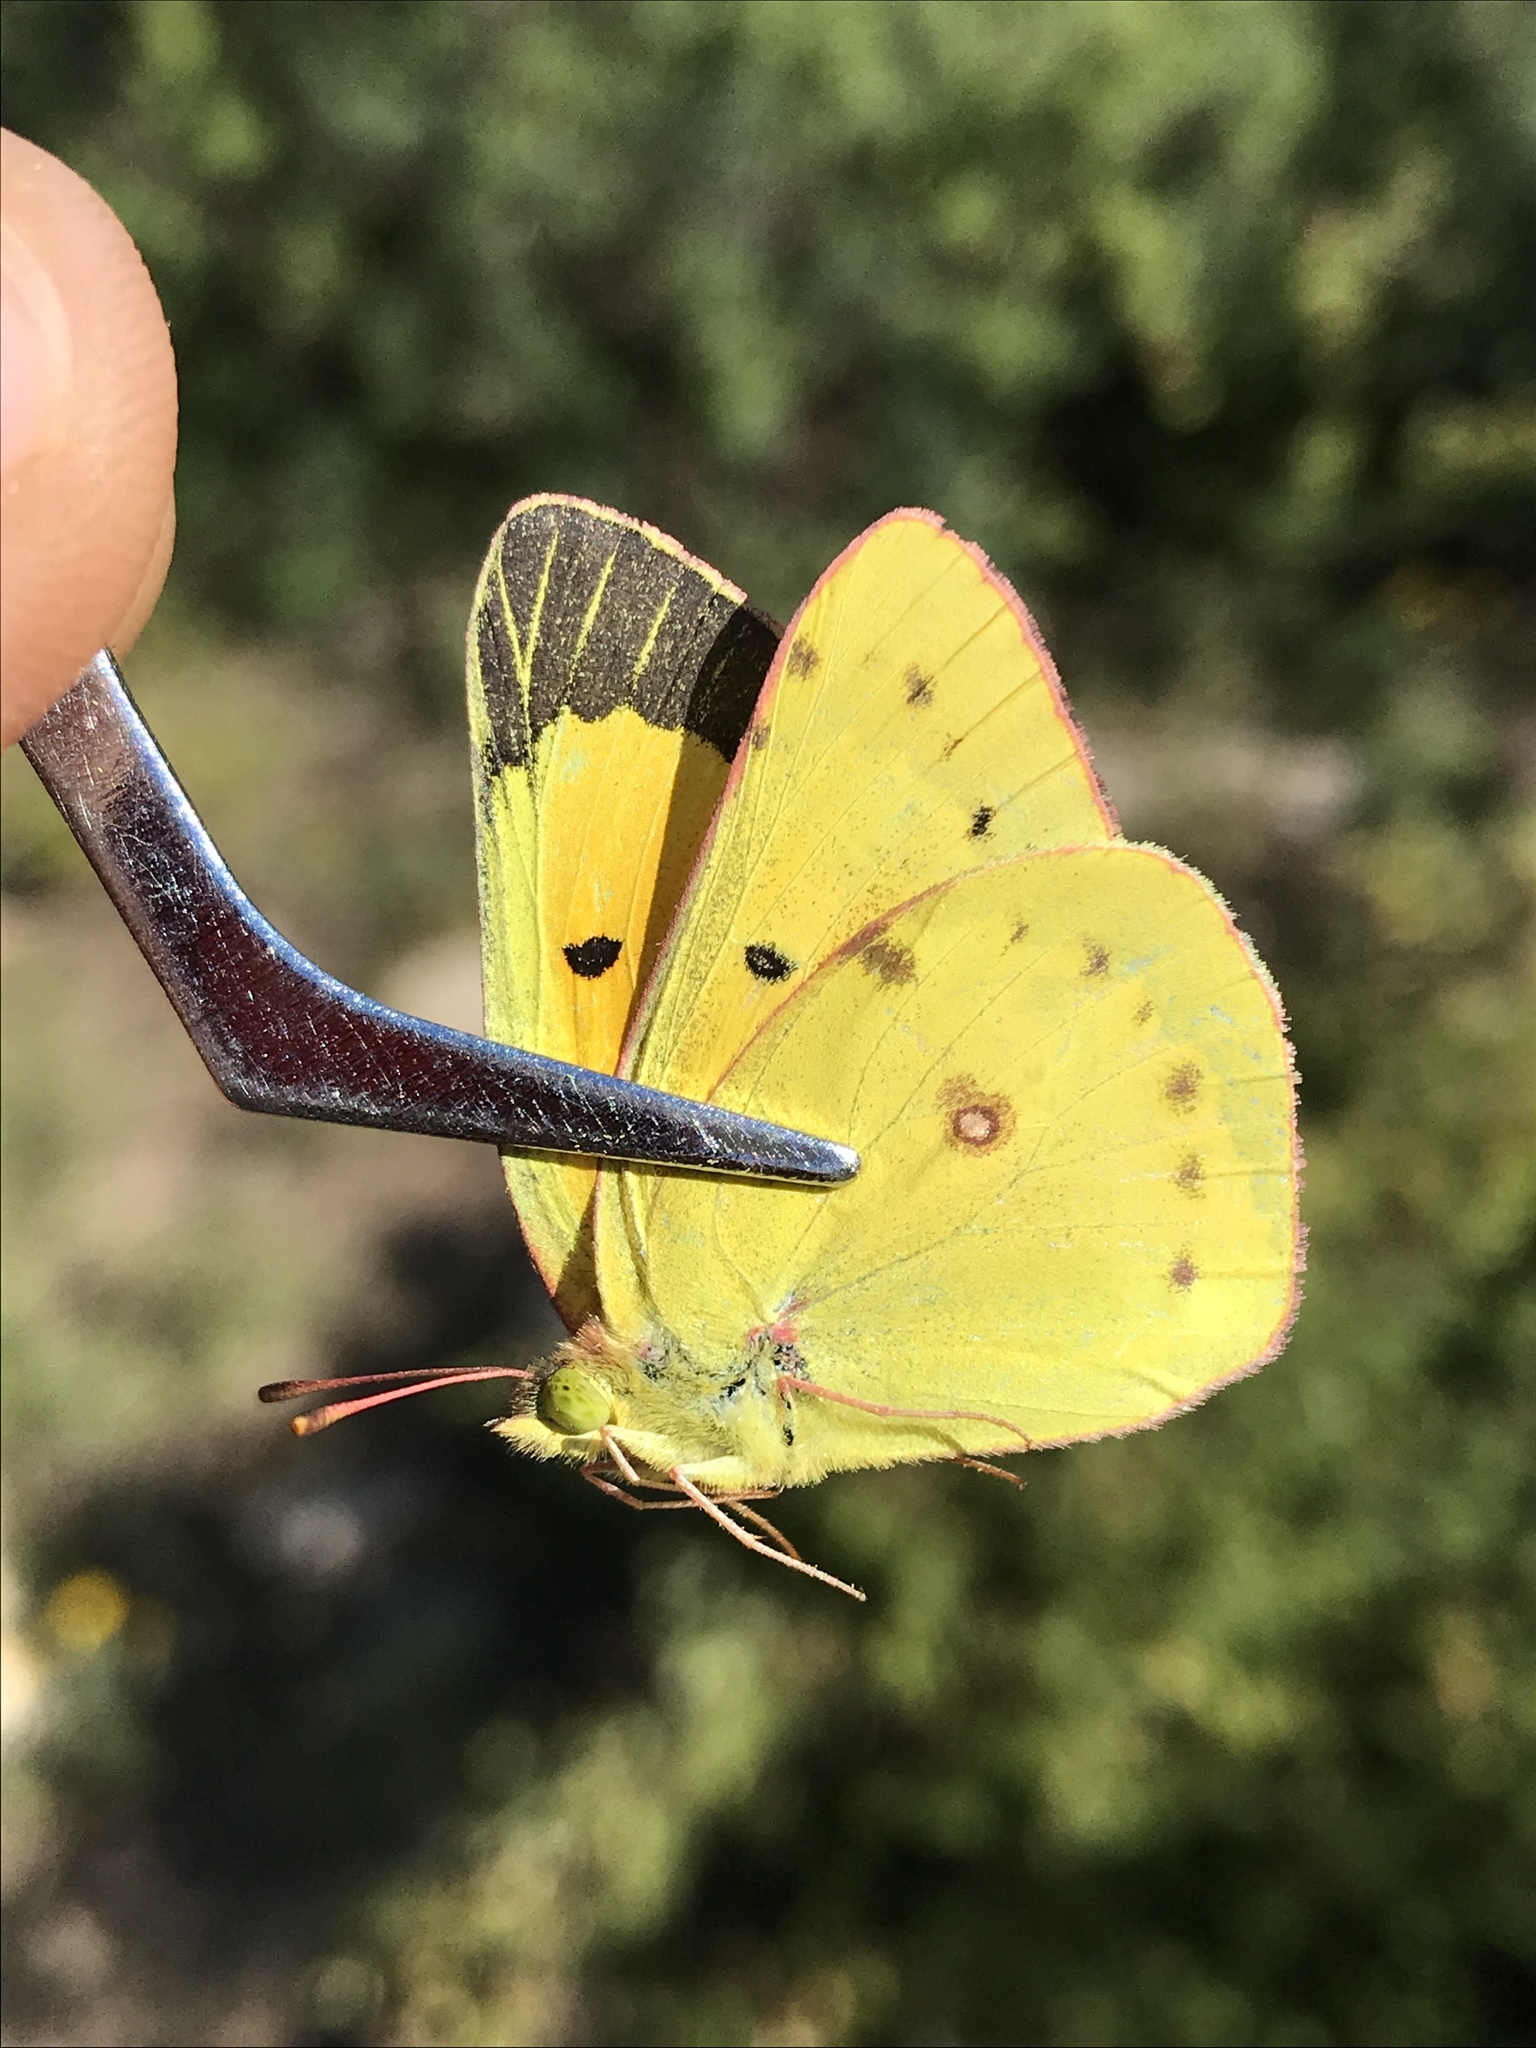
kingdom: Animalia
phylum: Arthropoda
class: Insecta
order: Lepidoptera
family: Pieridae
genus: Colias
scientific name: Colias eurytheme
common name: Alfalfa butterfly
